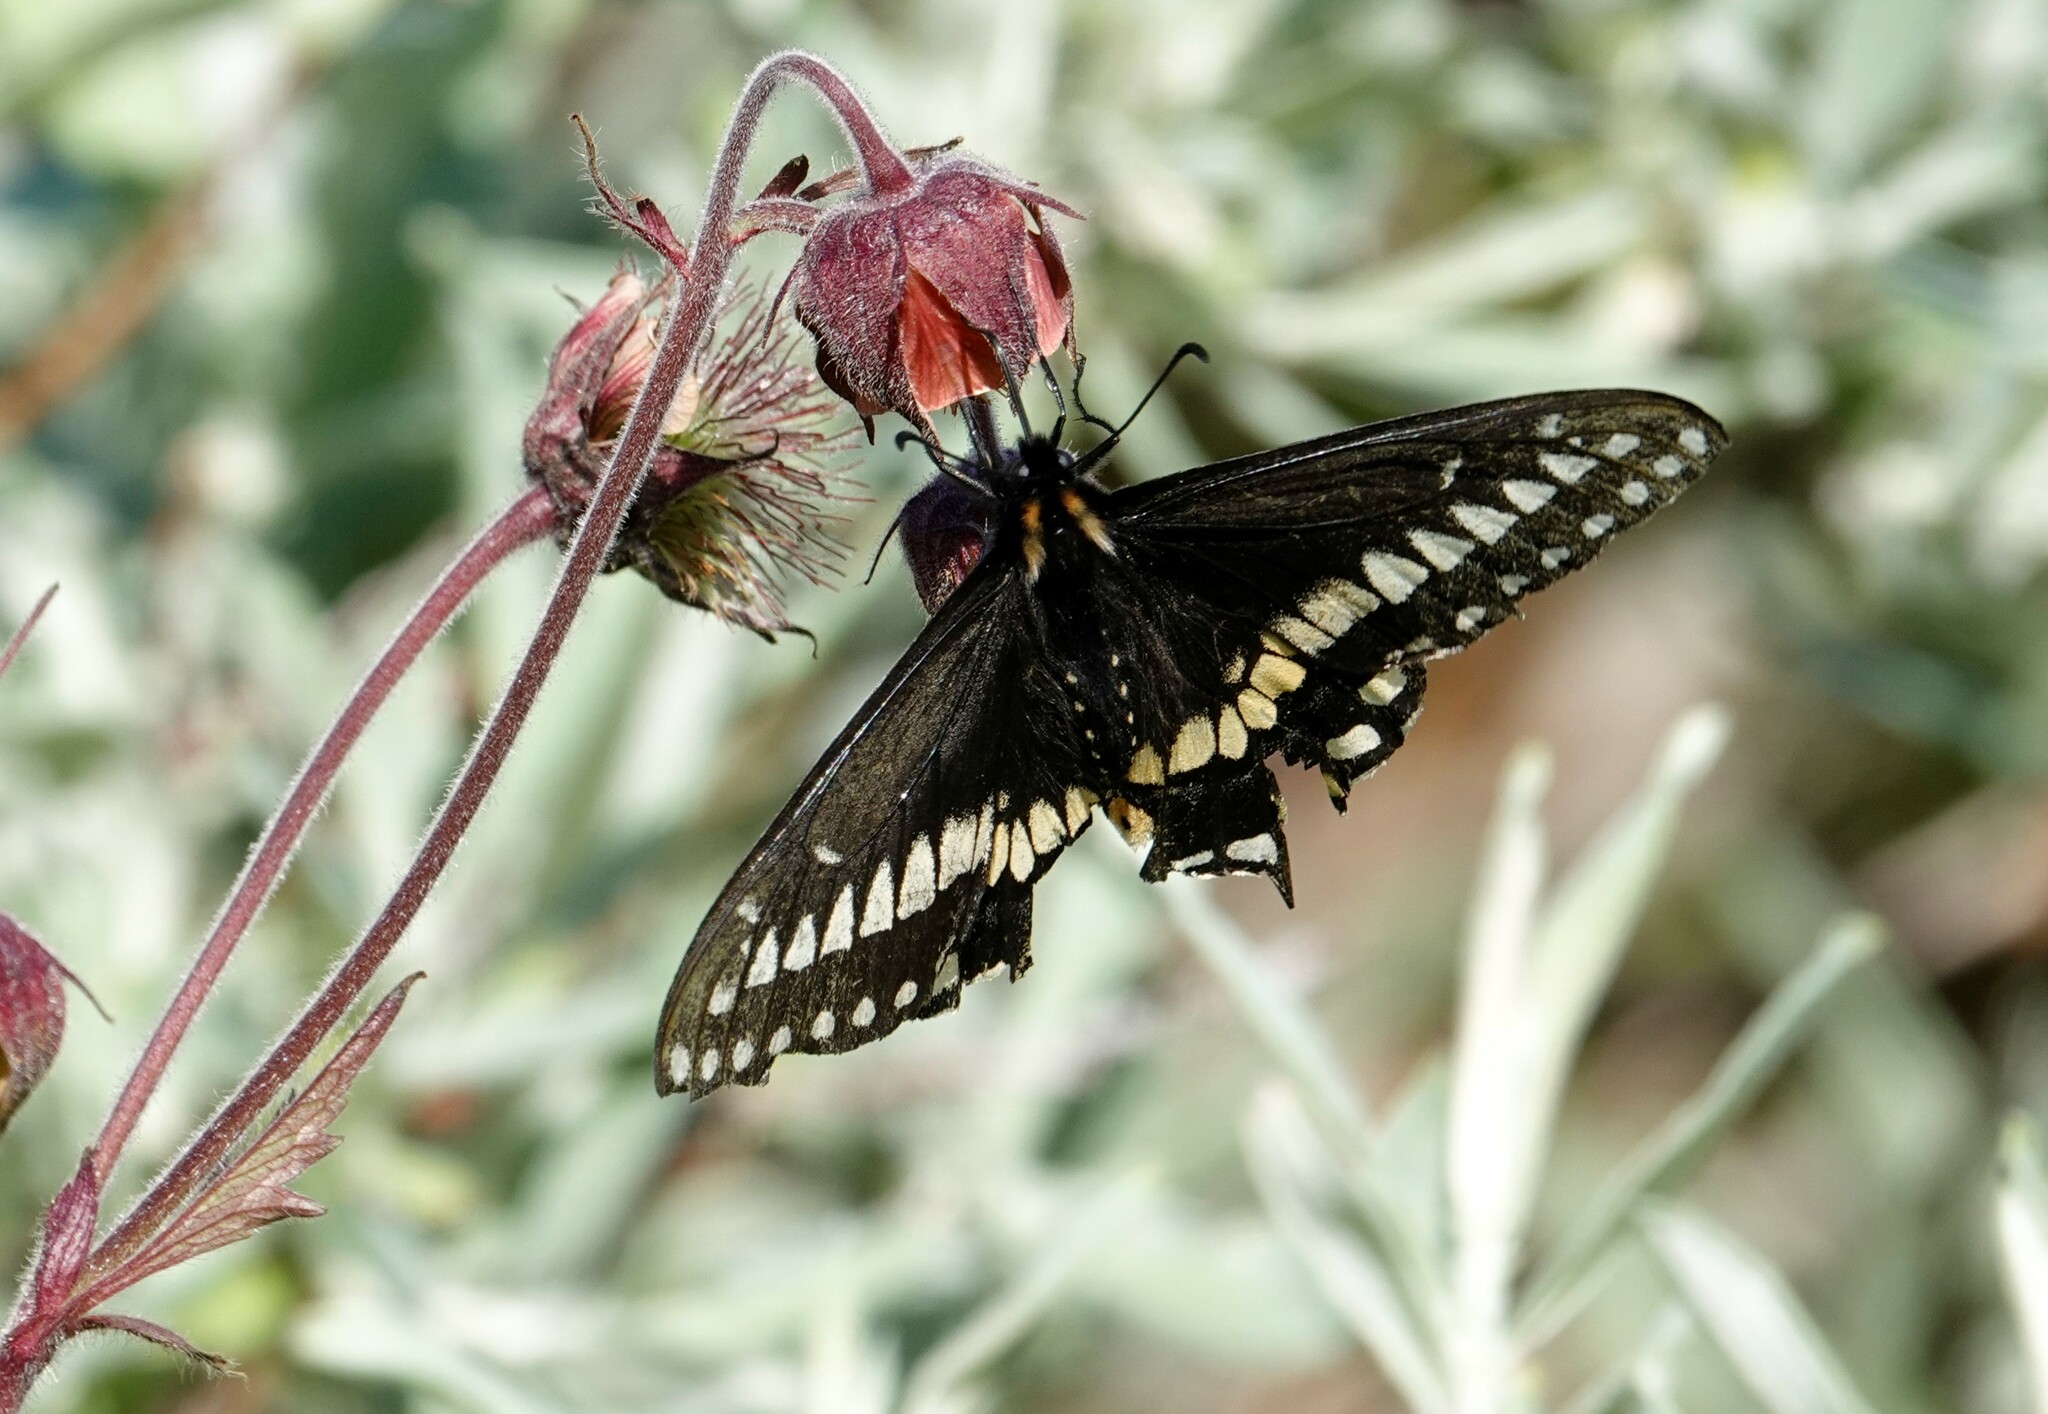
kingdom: Animalia
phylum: Arthropoda
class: Insecta
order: Lepidoptera
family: Papilionidae
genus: Papilio
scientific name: Papilio brevicauda
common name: Short tailed swallowtail
